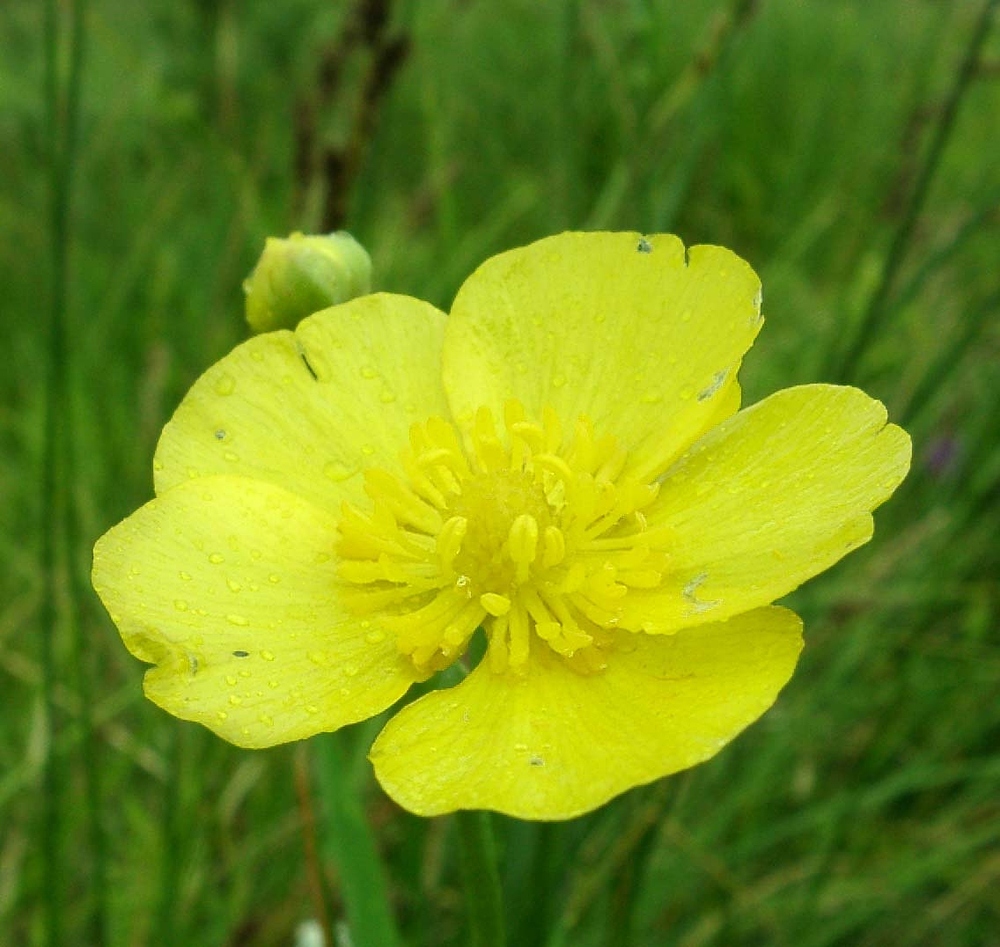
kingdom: Plantae
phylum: Tracheophyta
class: Magnoliopsida
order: Ranunculales
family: Ranunculaceae
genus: Ranunculus
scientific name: Ranunculus lingua
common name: Greater spearwort
